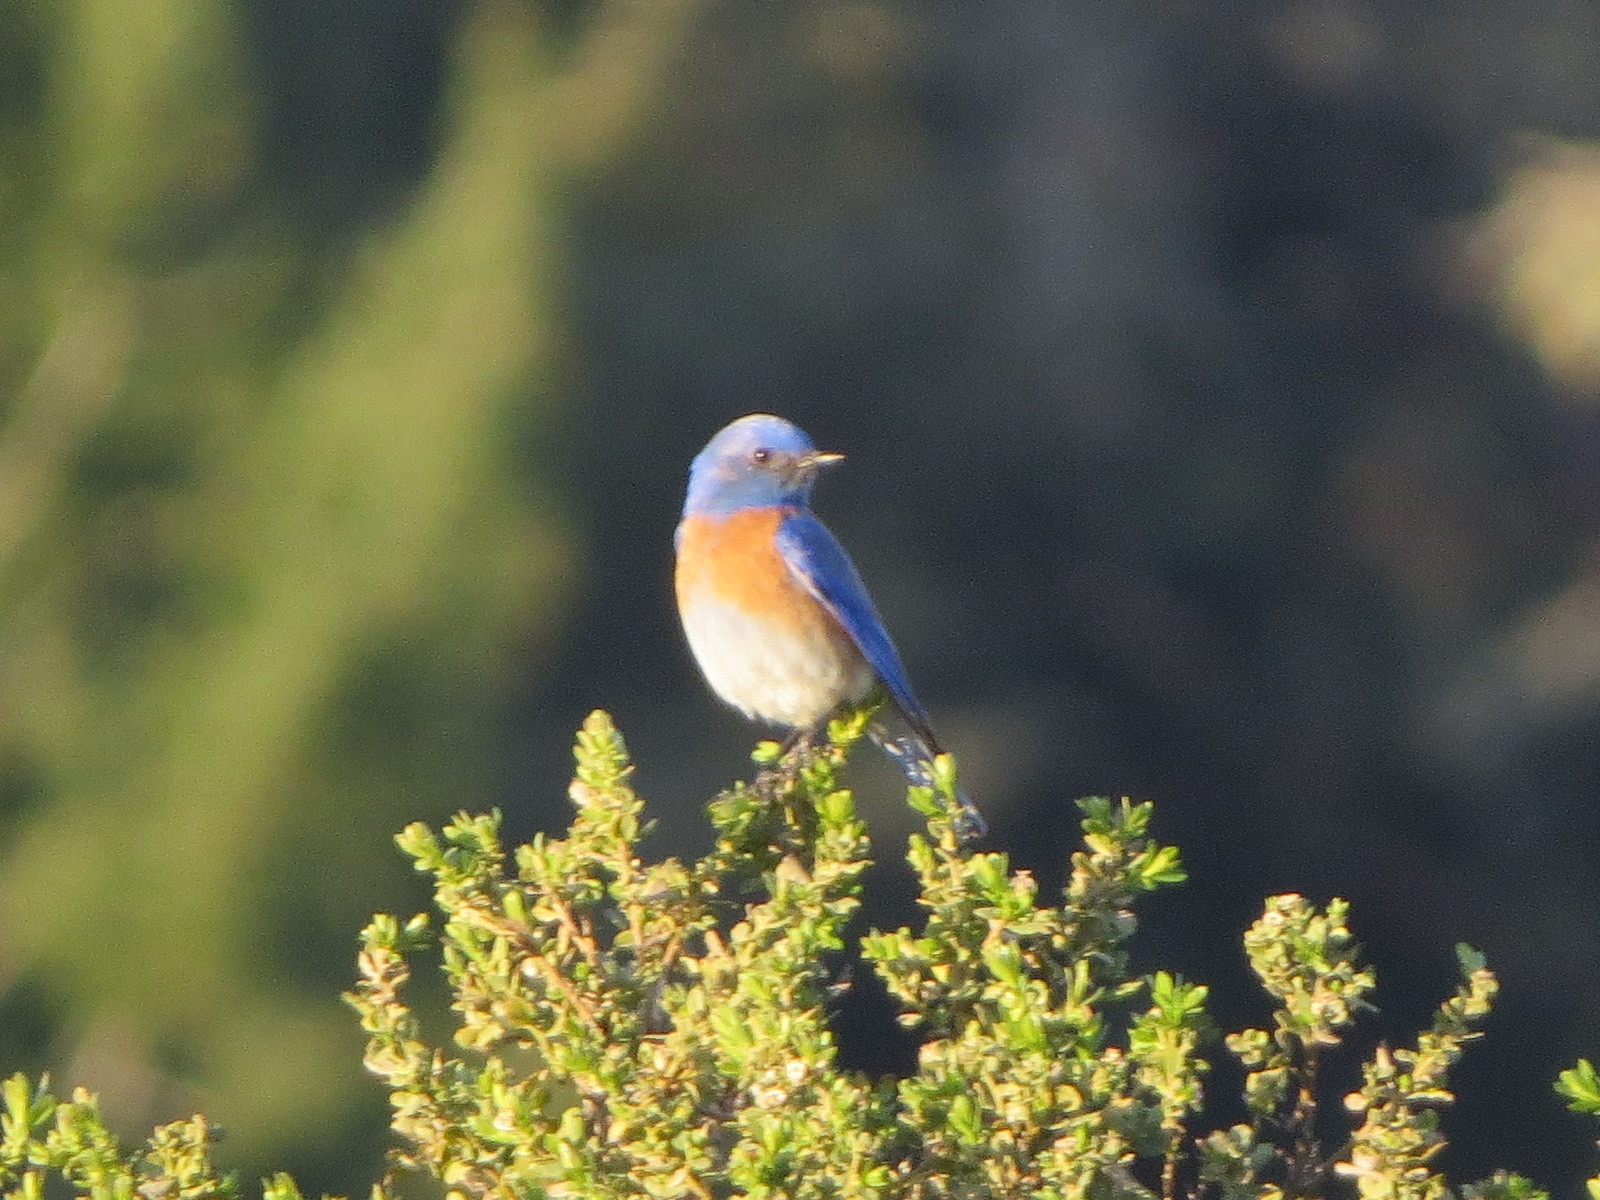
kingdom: Animalia
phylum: Chordata
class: Aves
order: Passeriformes
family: Turdidae
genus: Sialia
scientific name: Sialia mexicana
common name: Western bluebird
